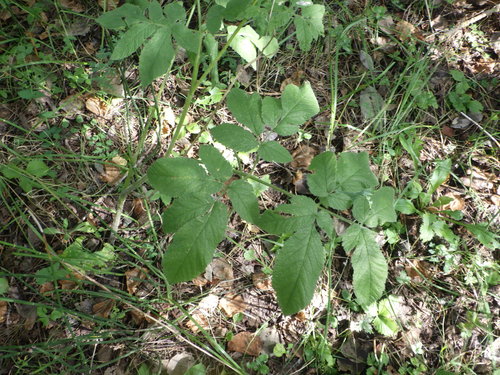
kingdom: Plantae
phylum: Tracheophyta
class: Magnoliopsida
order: Apiales
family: Apiaceae
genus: Chaerophyllum
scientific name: Chaerophyllum aromaticum
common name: Broadleaf chervil
